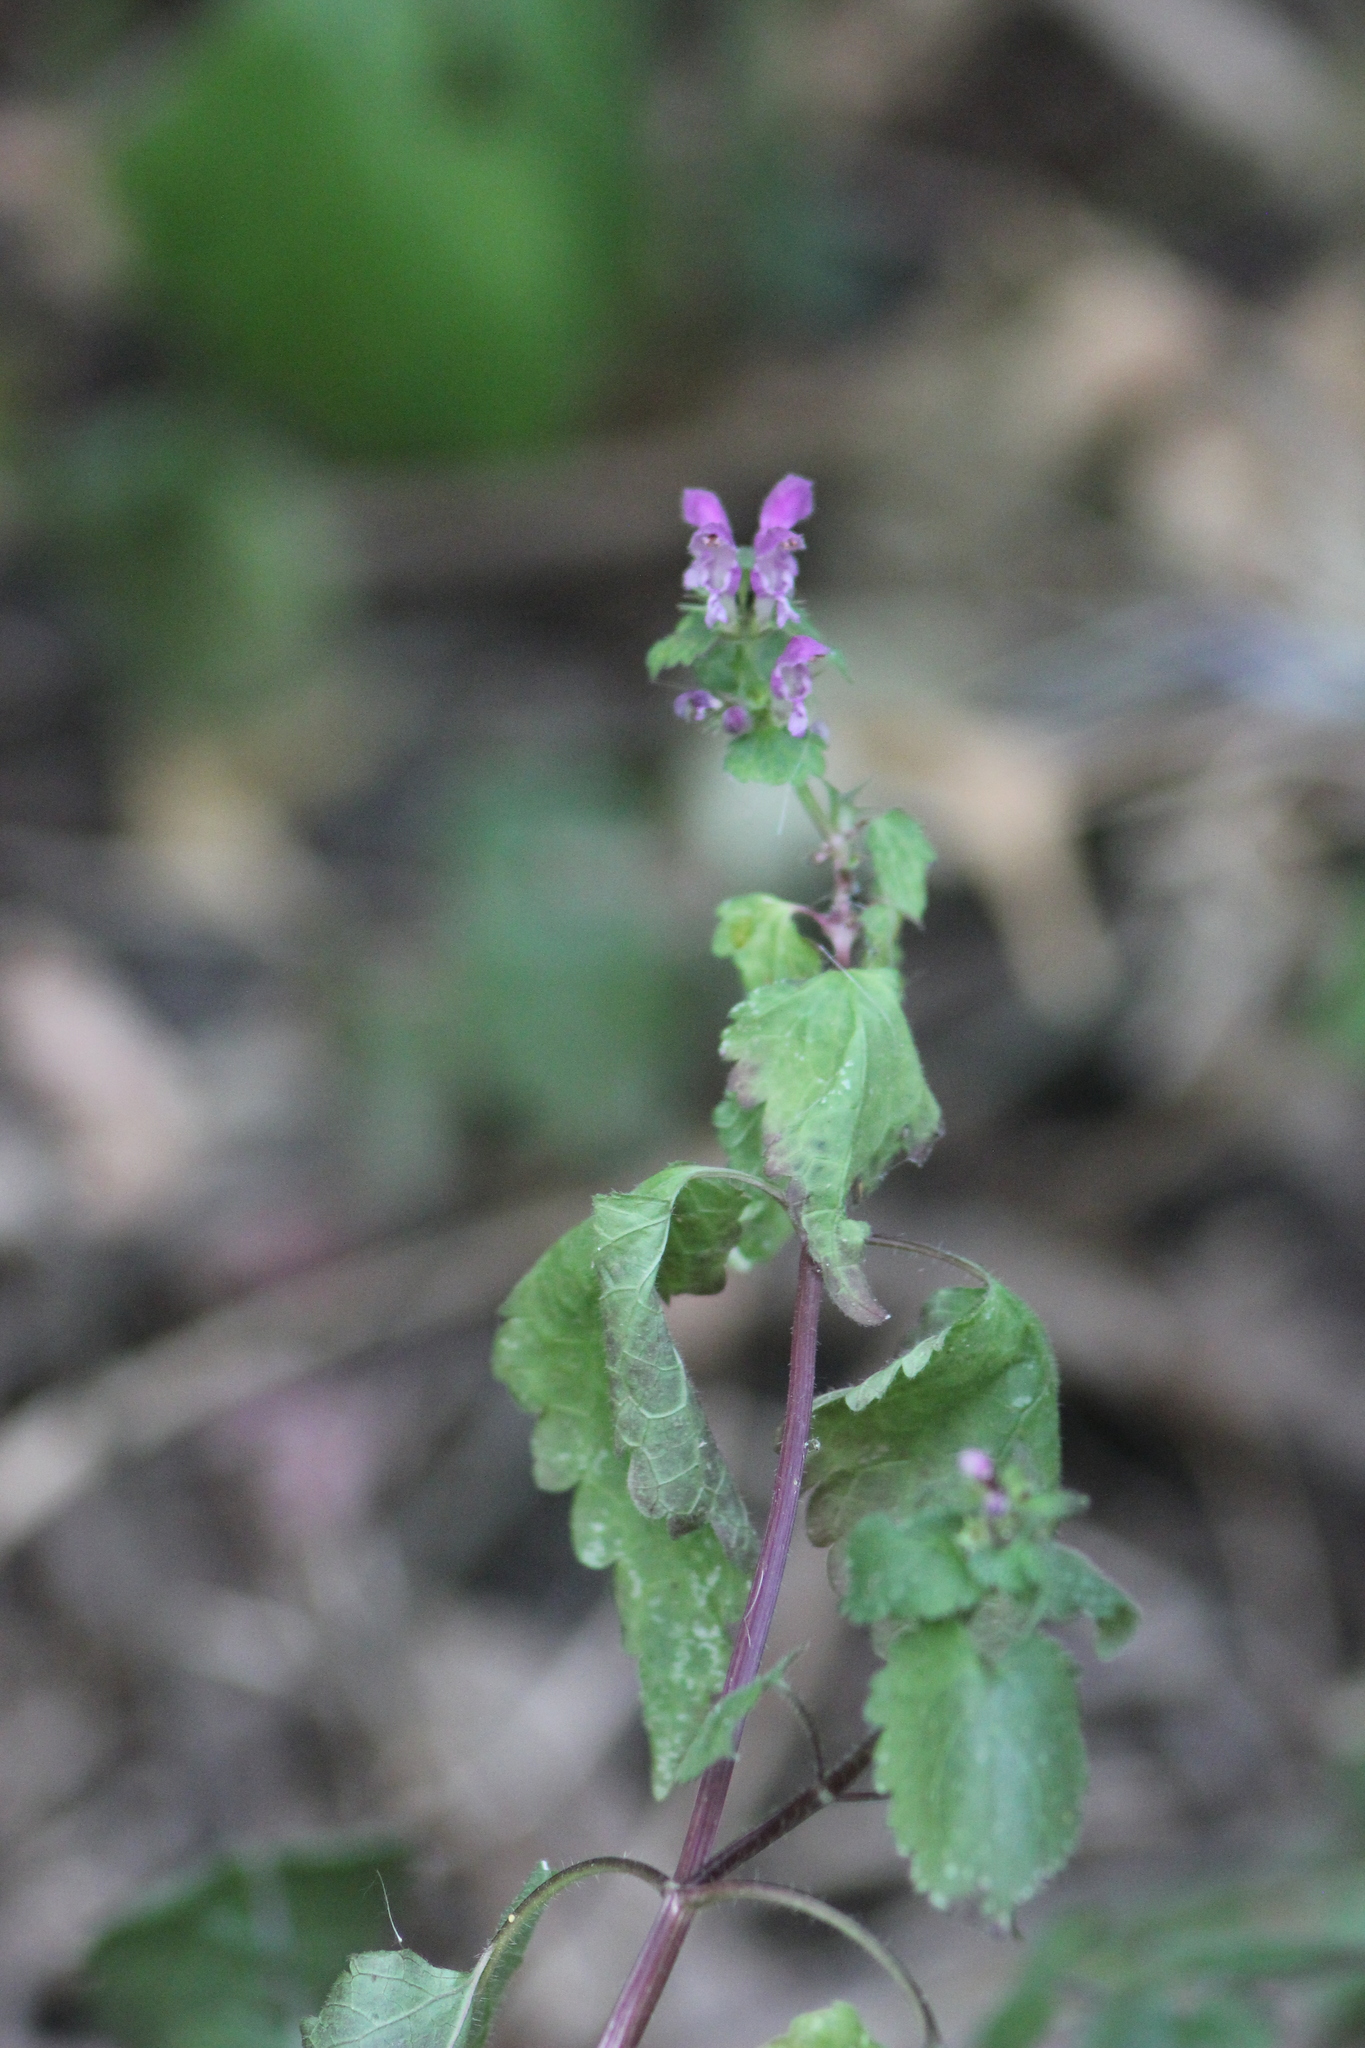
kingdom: Plantae
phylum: Tracheophyta
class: Magnoliopsida
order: Lamiales
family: Lamiaceae
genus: Lamium
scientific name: Lamium maculatum
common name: Spotted dead-nettle
